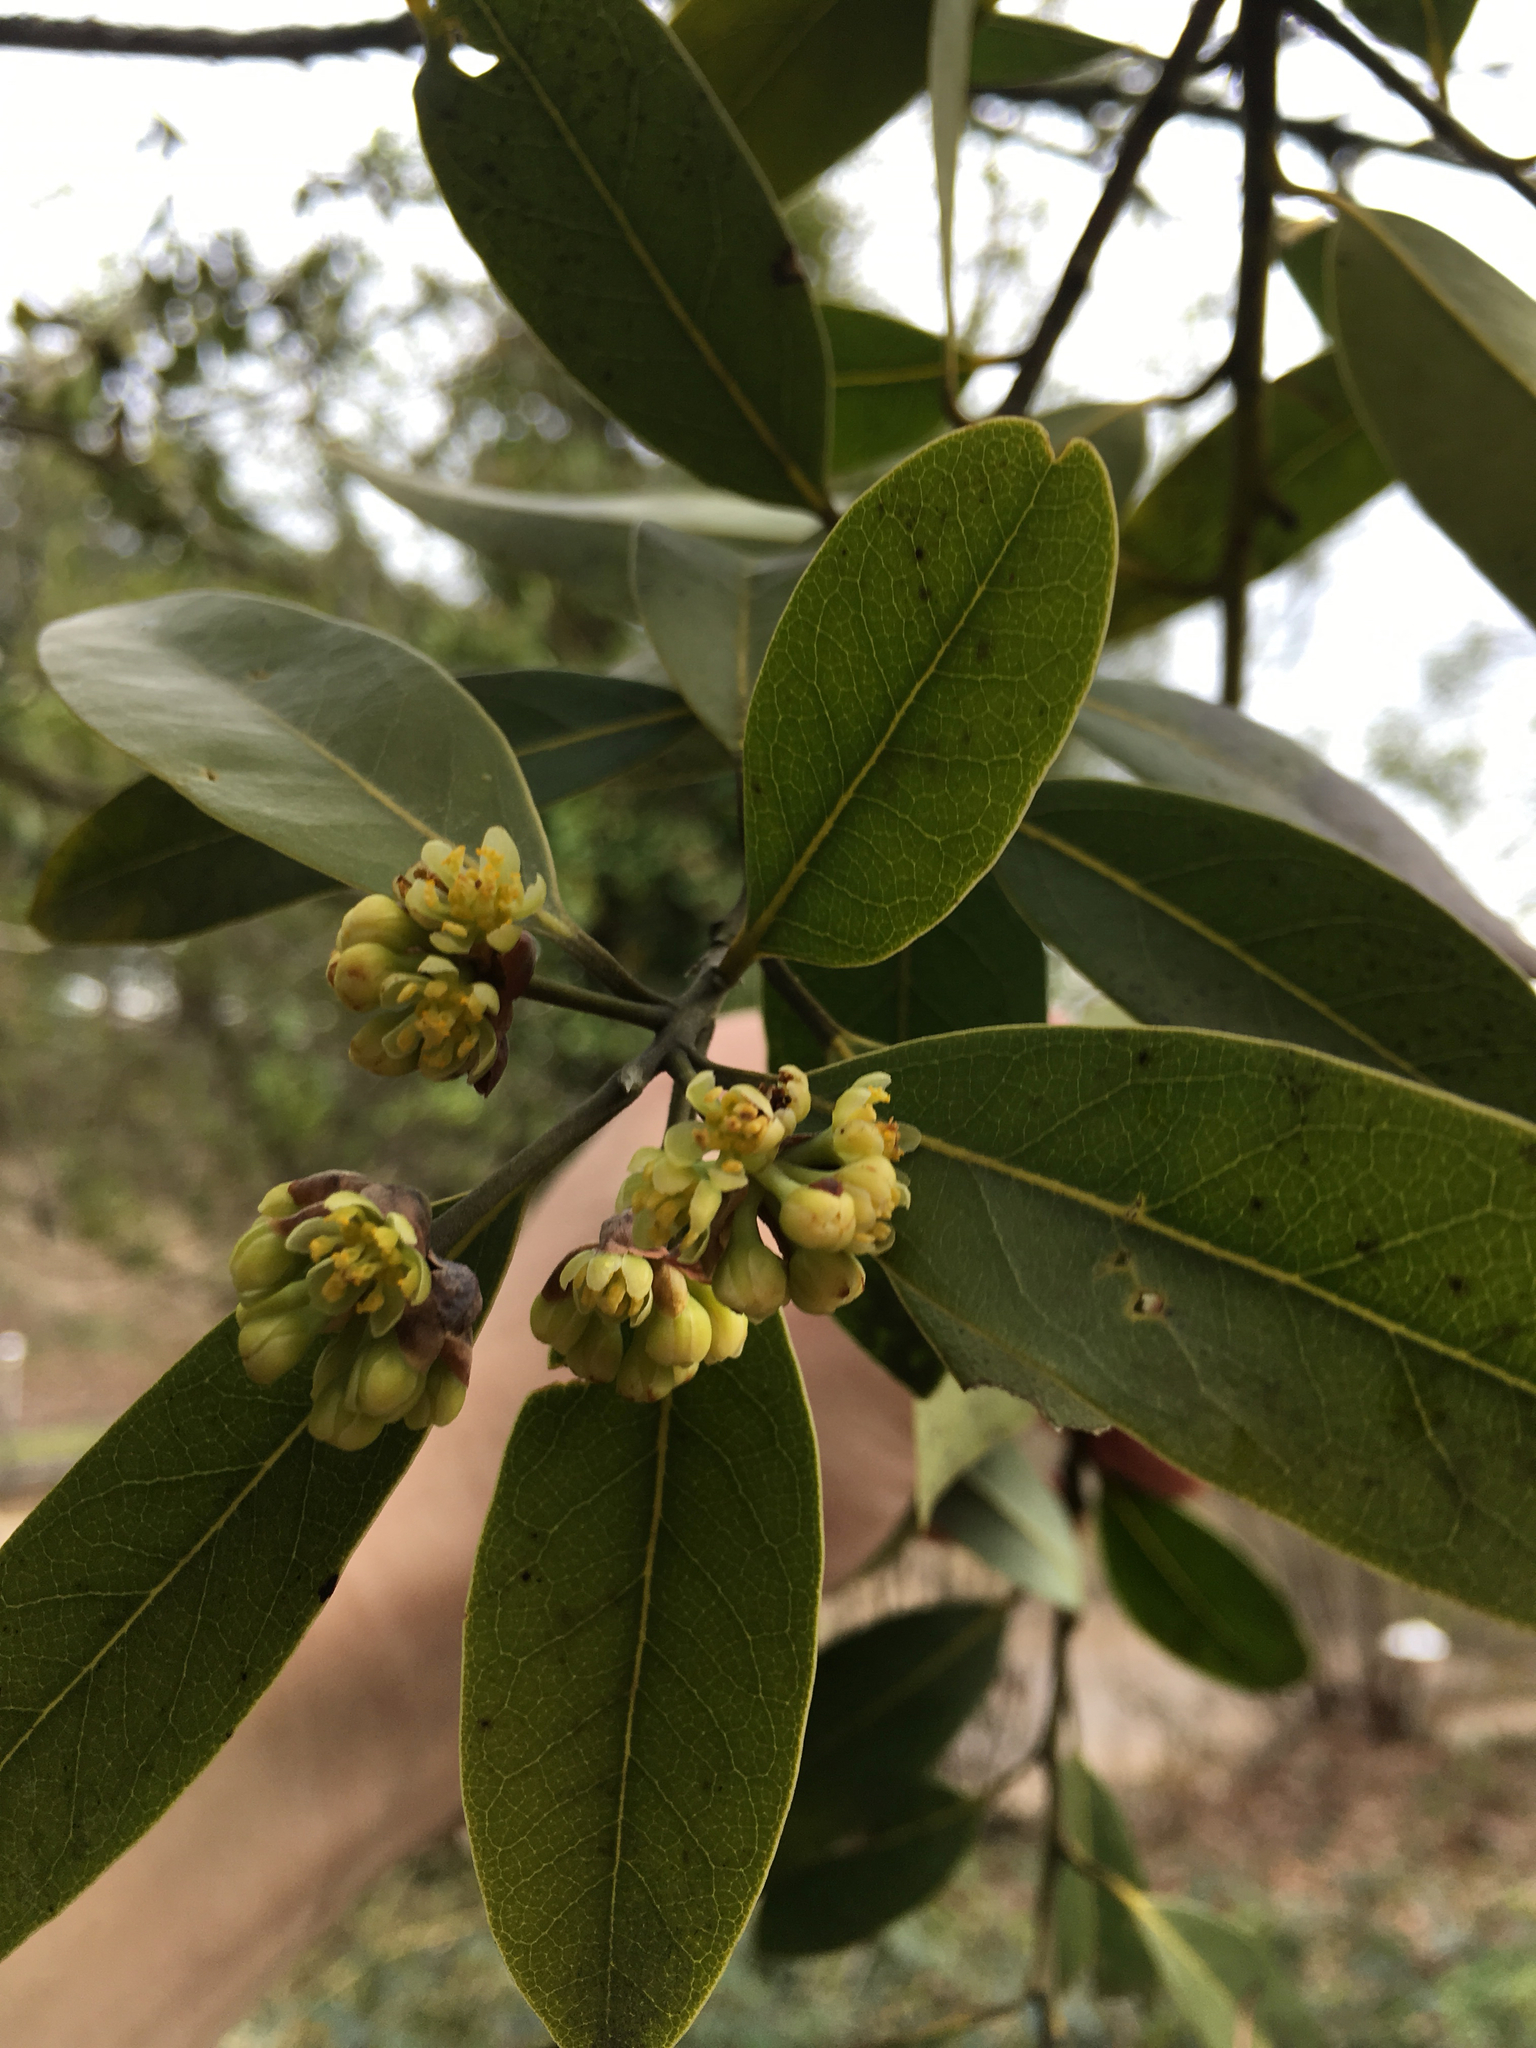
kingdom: Plantae
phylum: Tracheophyta
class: Magnoliopsida
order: Laurales
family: Lauraceae
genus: Umbellularia
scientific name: Umbellularia californica
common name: California bay
